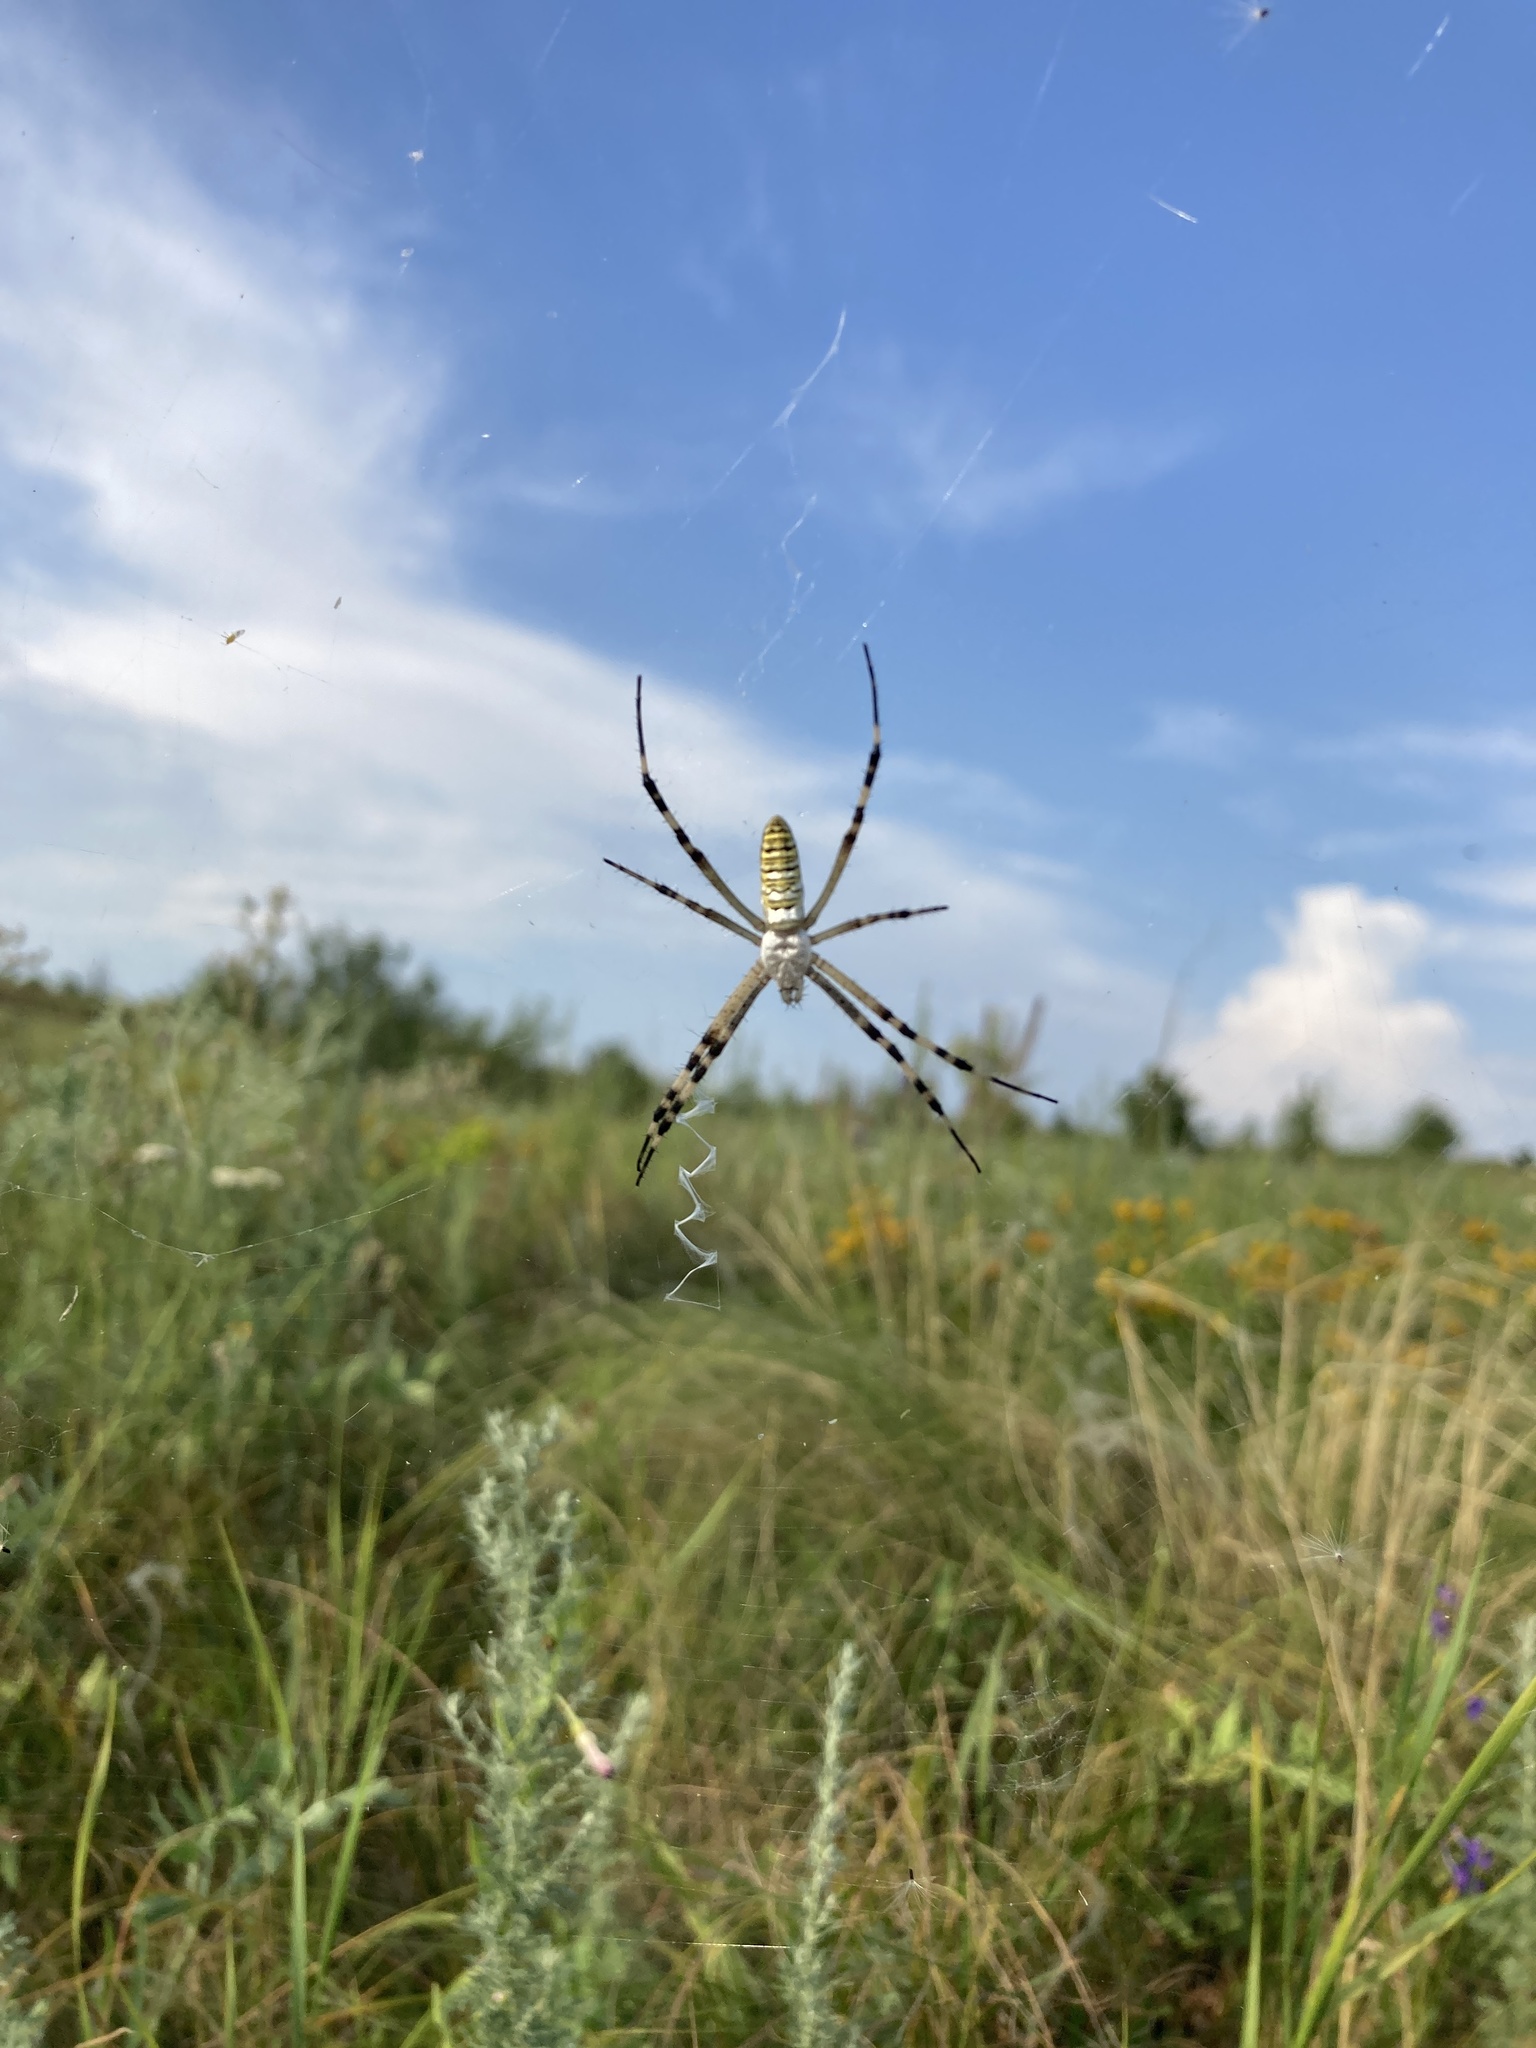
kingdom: Animalia
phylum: Arthropoda
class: Arachnida
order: Araneae
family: Araneidae
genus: Argiope
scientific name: Argiope bruennichi
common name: Wasp spider
